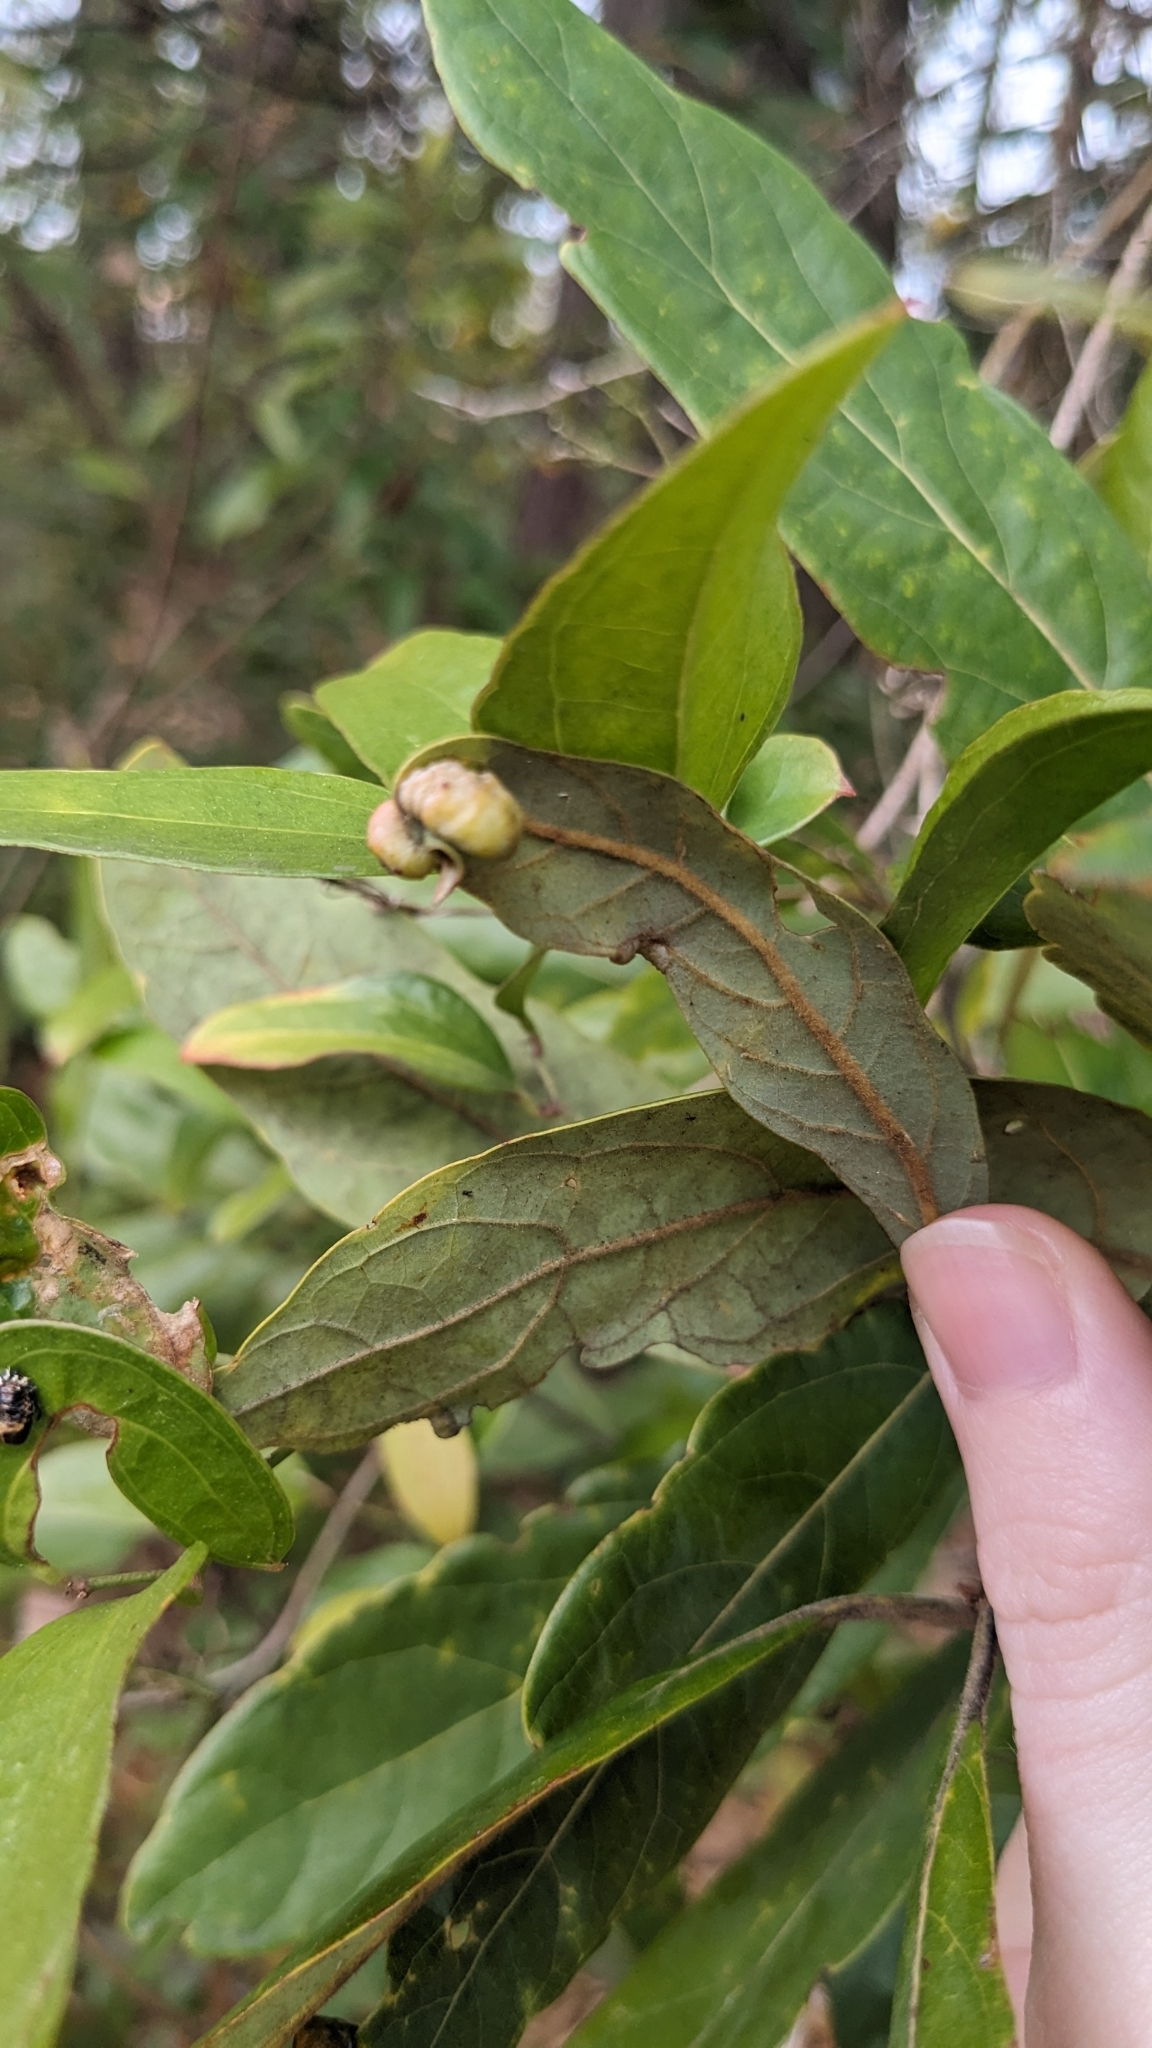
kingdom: Plantae
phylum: Tracheophyta
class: Magnoliopsida
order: Laurales
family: Lauraceae
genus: Persea
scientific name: Persea palustris
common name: Swampbay
